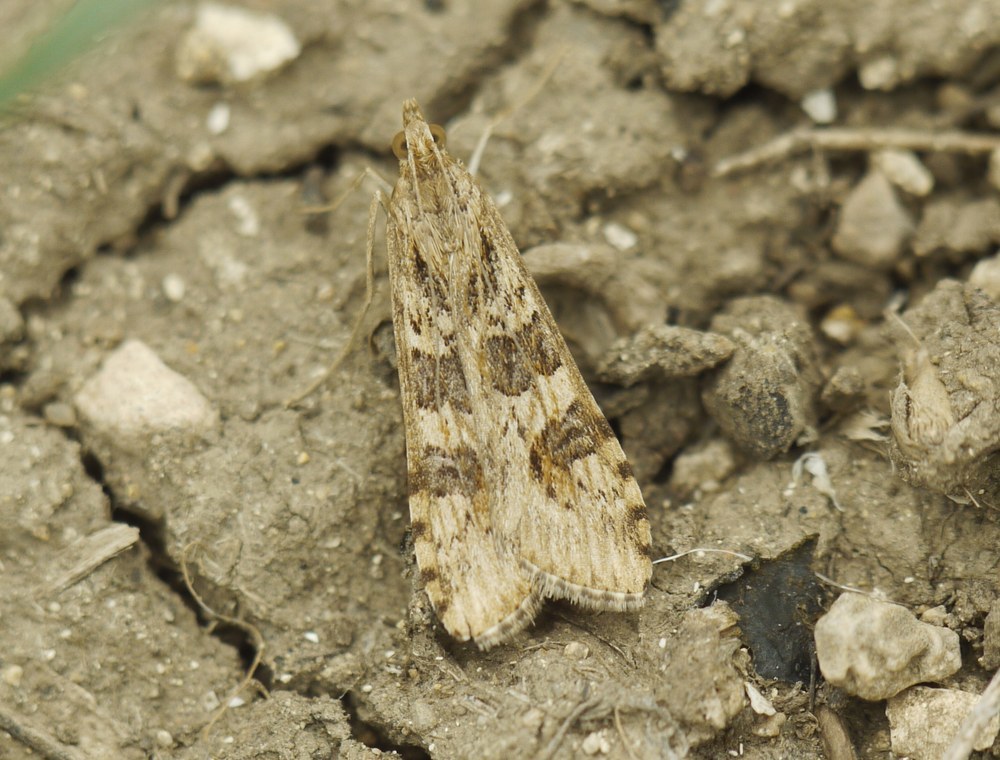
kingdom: Animalia
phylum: Arthropoda
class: Insecta
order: Lepidoptera
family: Crambidae
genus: Nomophila
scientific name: Nomophila noctuella
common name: Rush veneer
